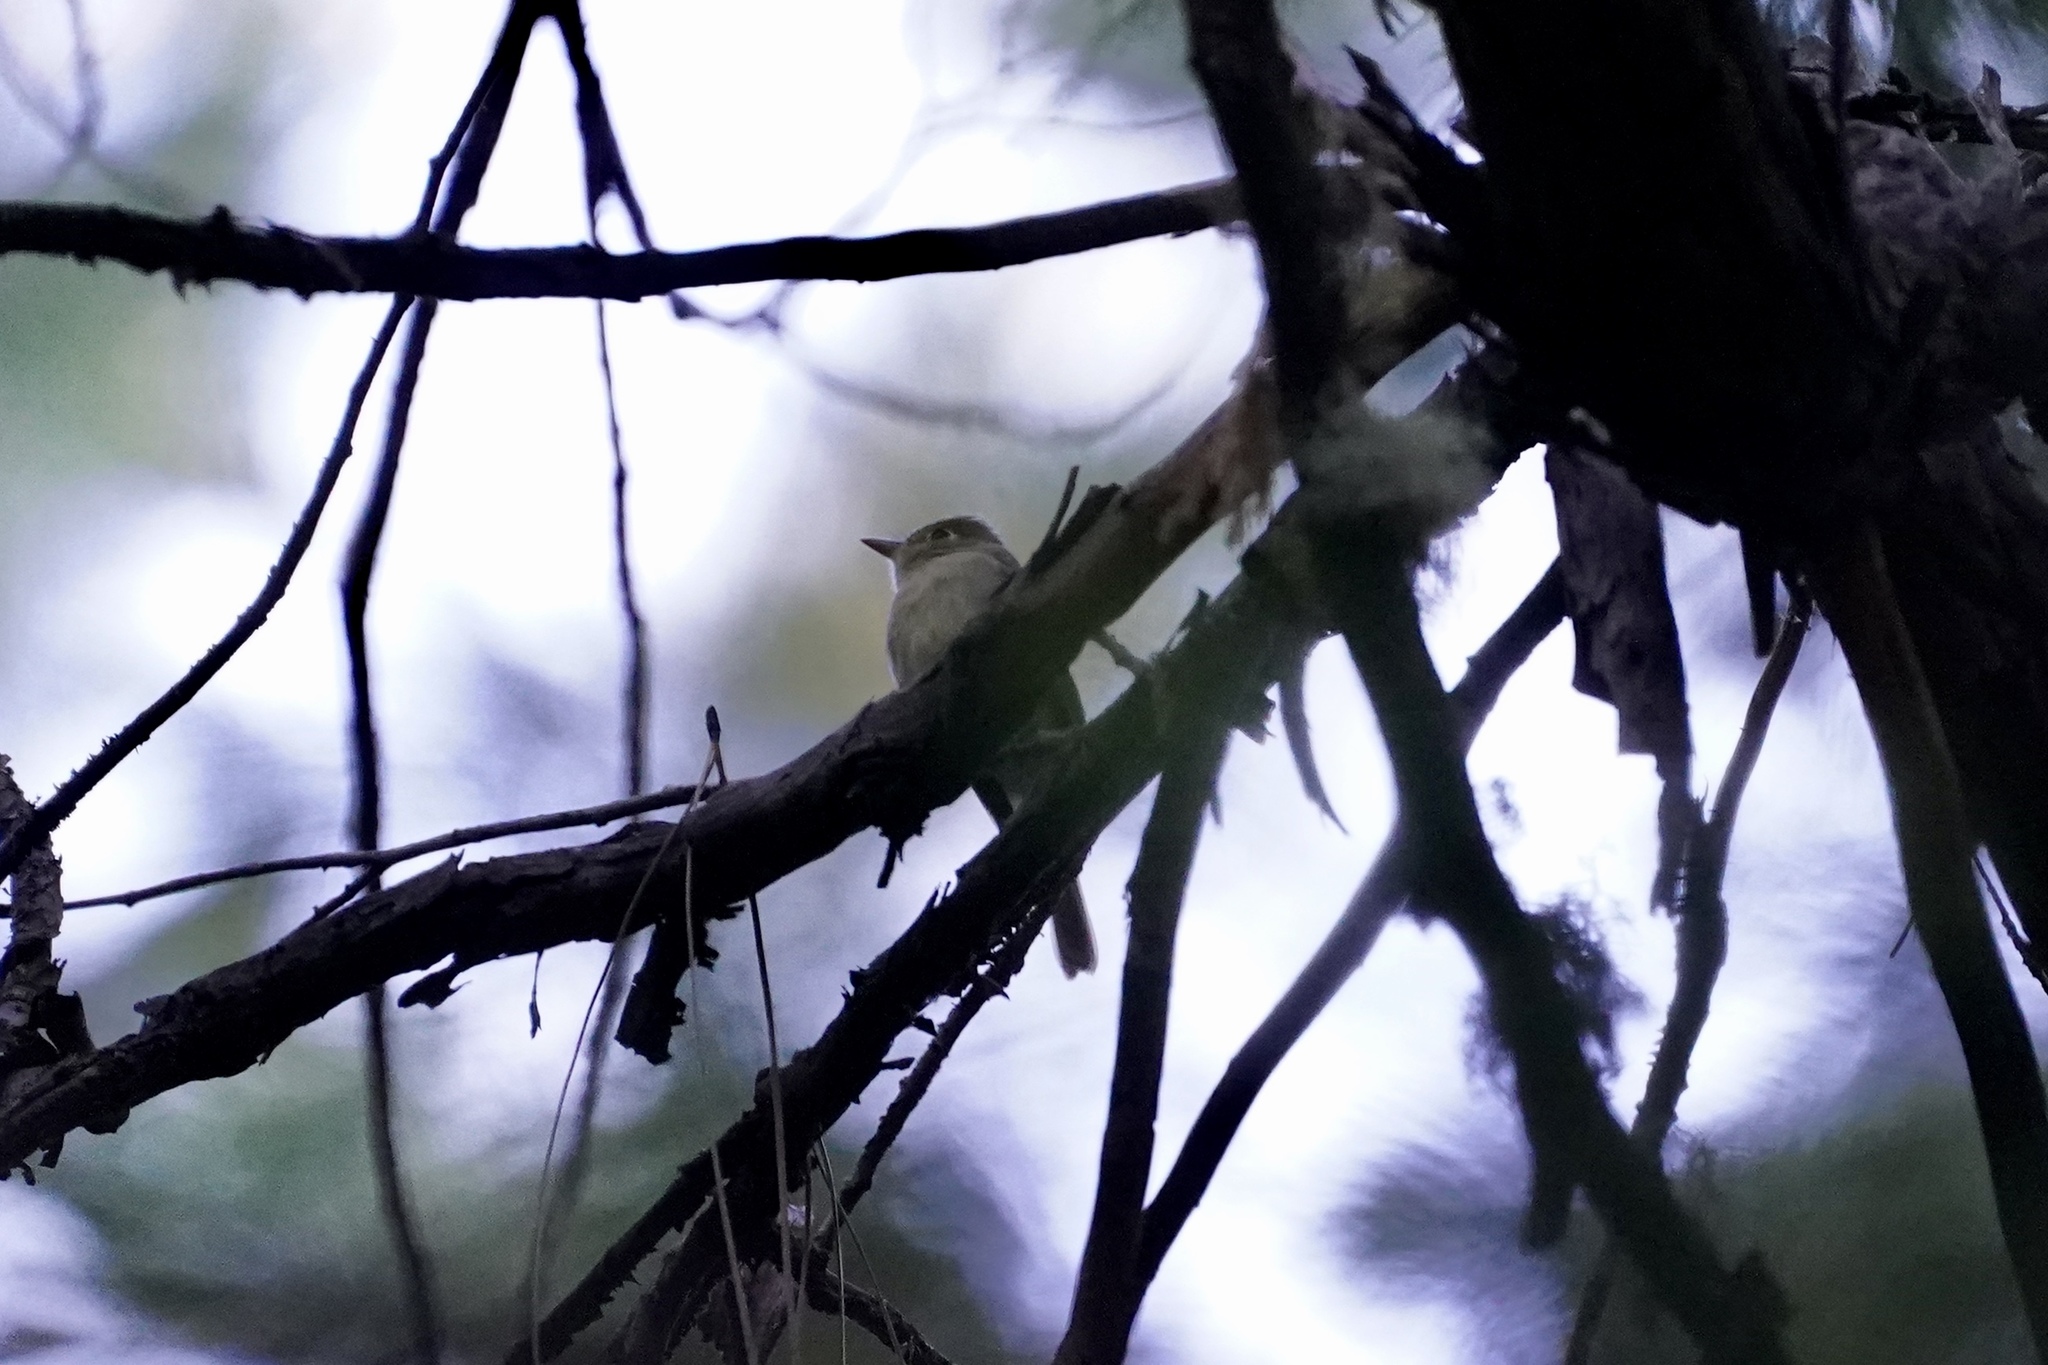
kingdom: Animalia
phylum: Chordata
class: Aves
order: Passeriformes
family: Tyrannidae
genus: Empidonax
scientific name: Empidonax difficilis
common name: Pacific-slope flycatcher
